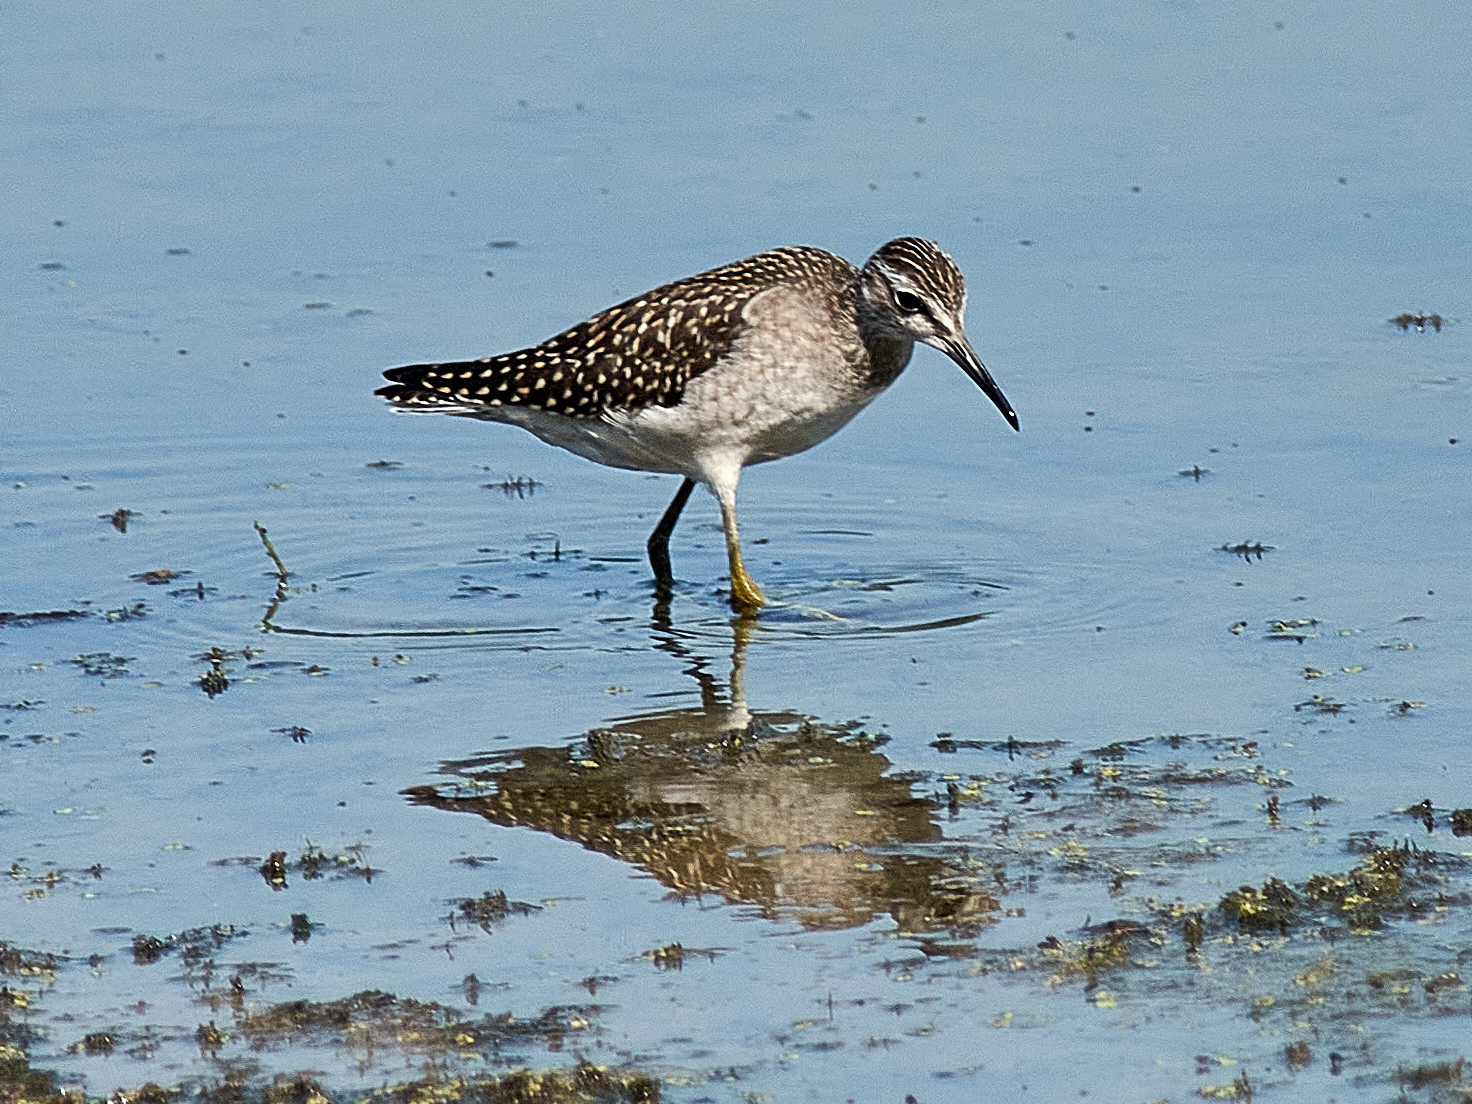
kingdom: Animalia
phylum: Chordata
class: Aves
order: Charadriiformes
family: Scolopacidae
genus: Tringa
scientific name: Tringa glareola
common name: Wood sandpiper
